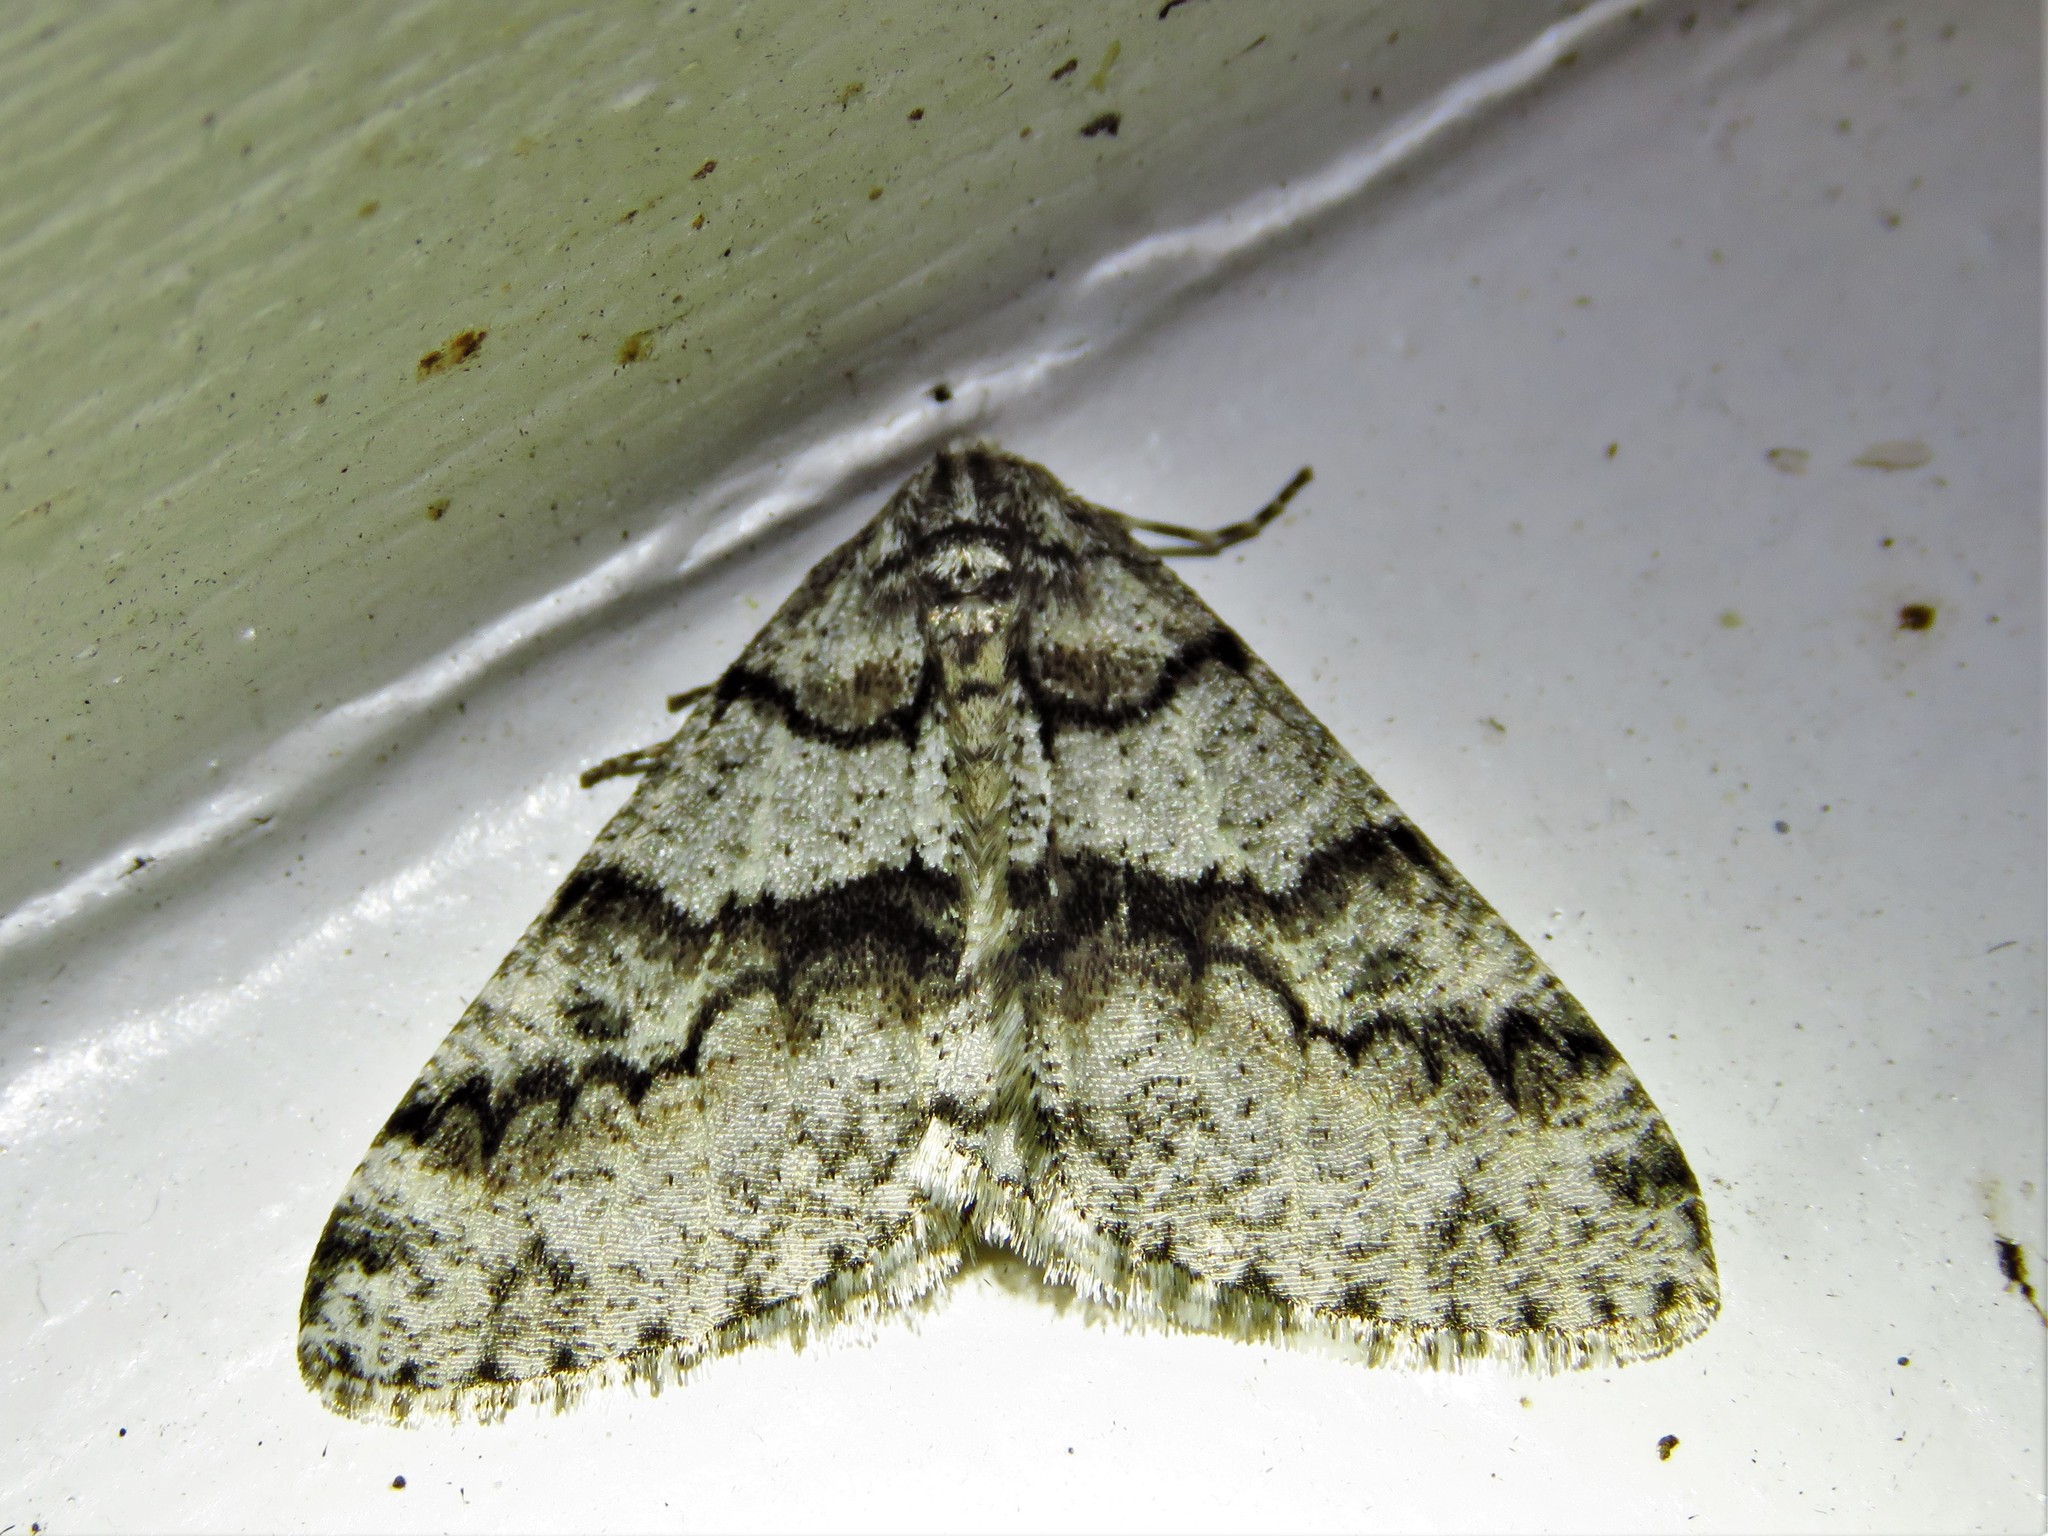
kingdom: Animalia
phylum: Arthropoda
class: Insecta
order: Lepidoptera
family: Geometridae
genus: Phigalia
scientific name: Phigalia denticulata
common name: Toothed phigalia
